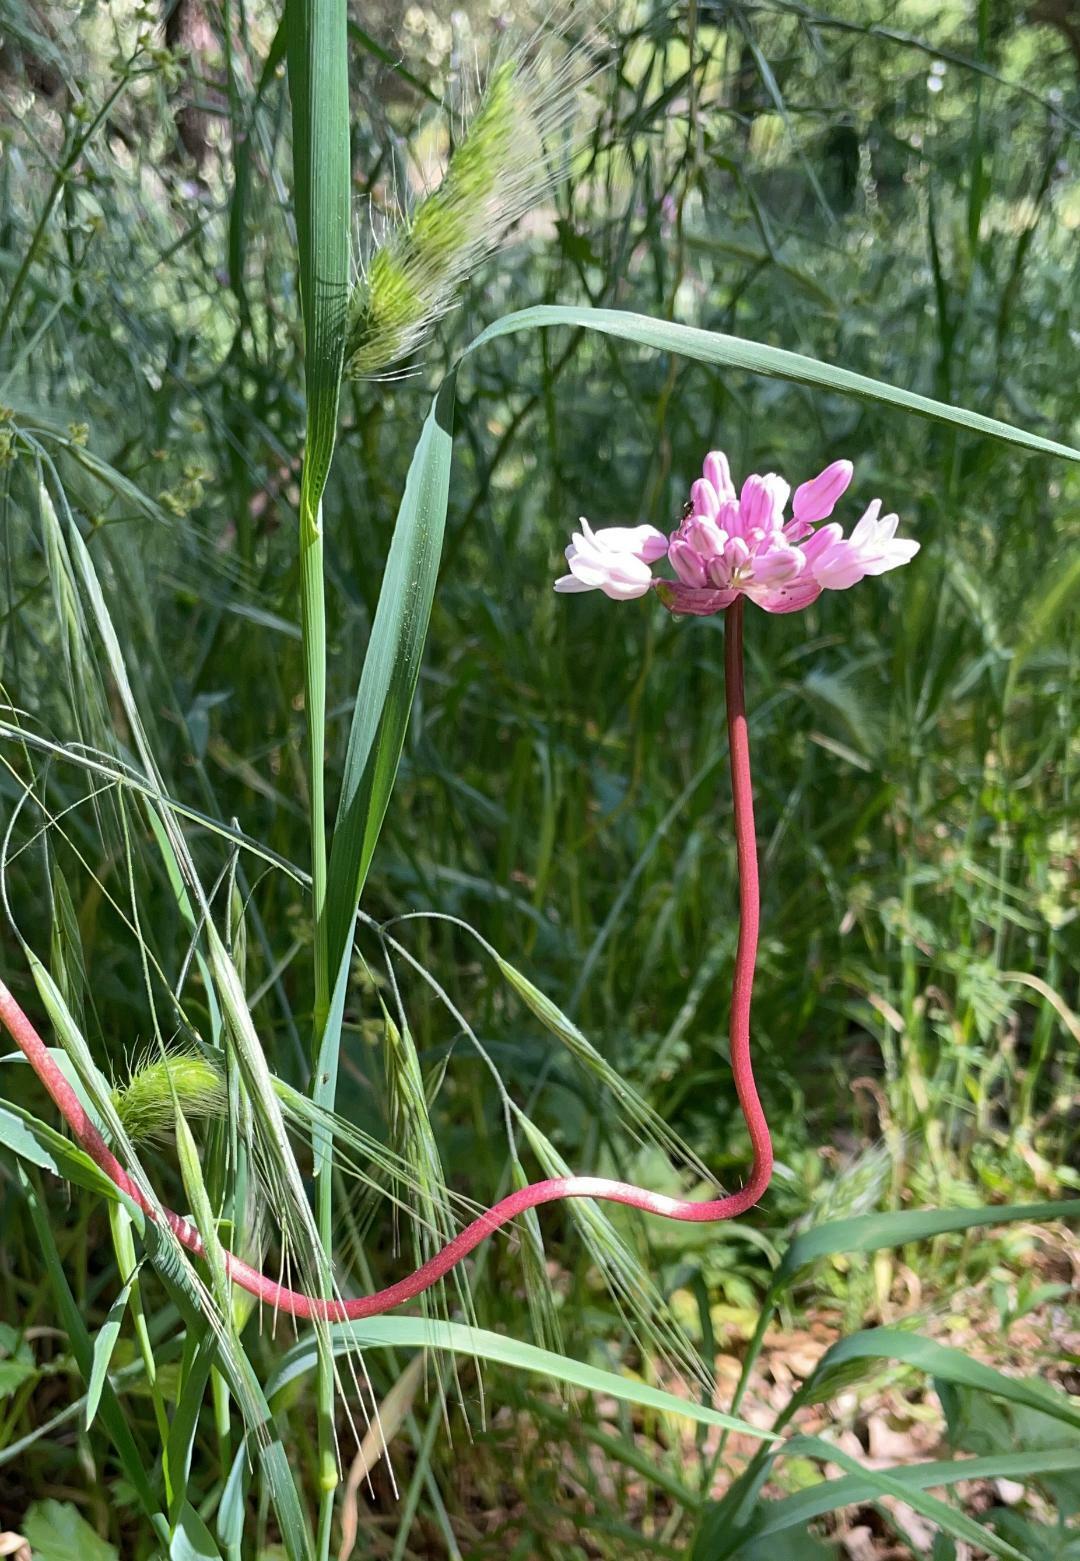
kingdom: Plantae
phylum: Tracheophyta
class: Liliopsida
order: Asparagales
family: Asparagaceae
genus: Dichelostemma
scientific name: Dichelostemma volubile
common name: Trining brodiaea
